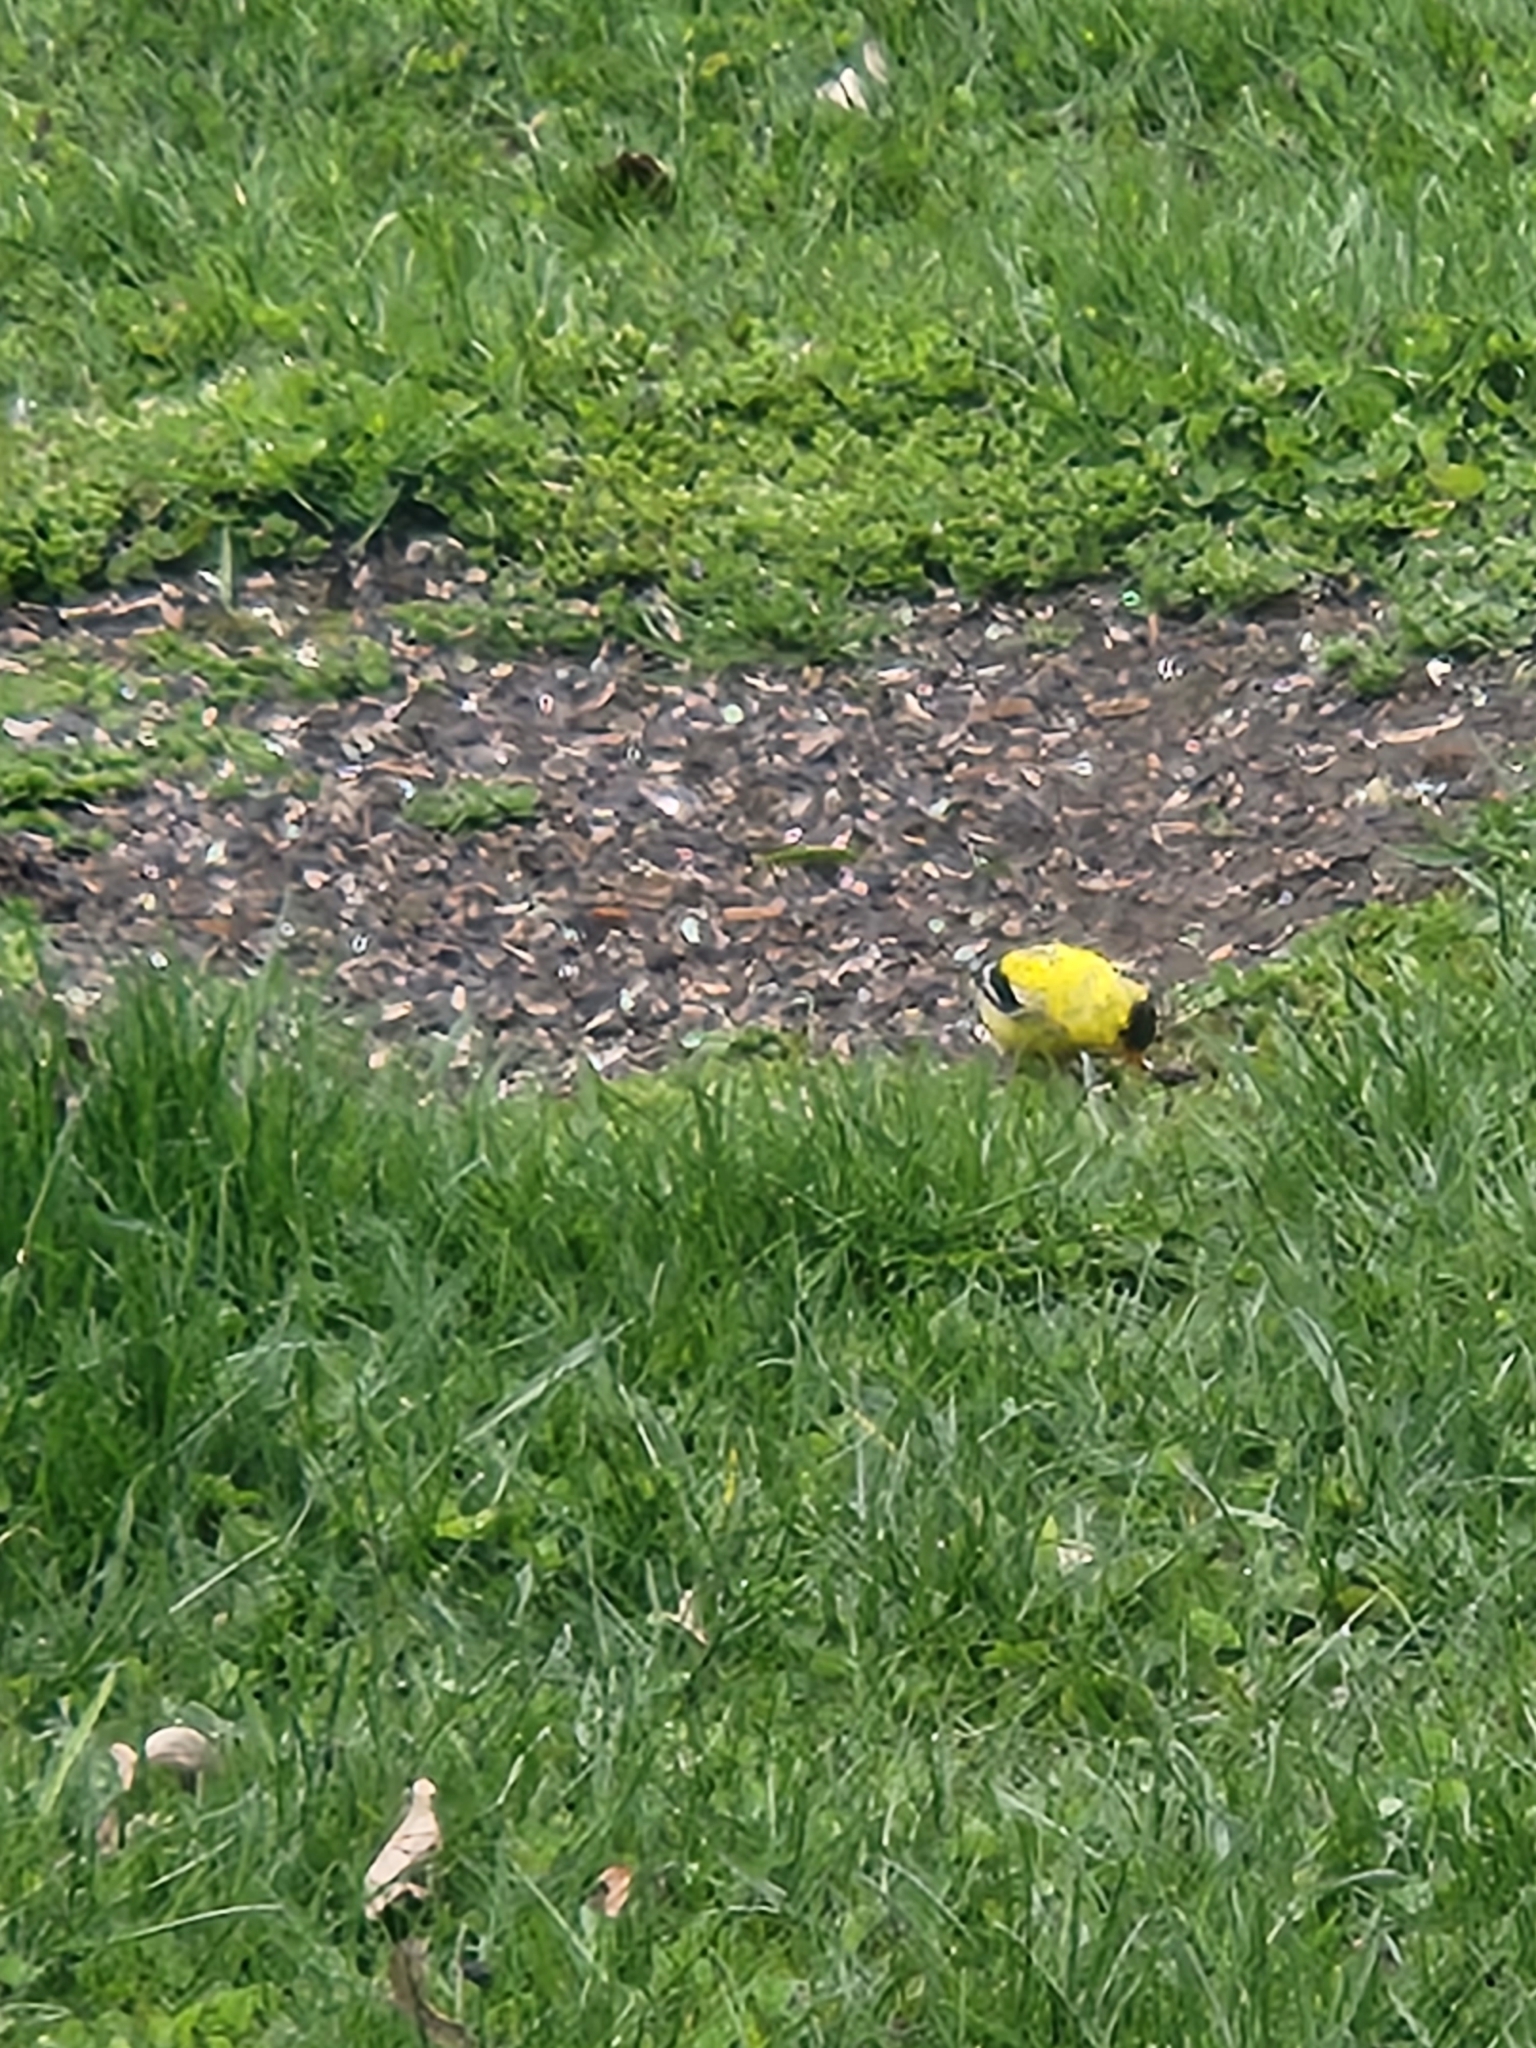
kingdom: Animalia
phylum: Chordata
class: Aves
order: Passeriformes
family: Fringillidae
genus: Spinus
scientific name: Spinus tristis
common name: American goldfinch
